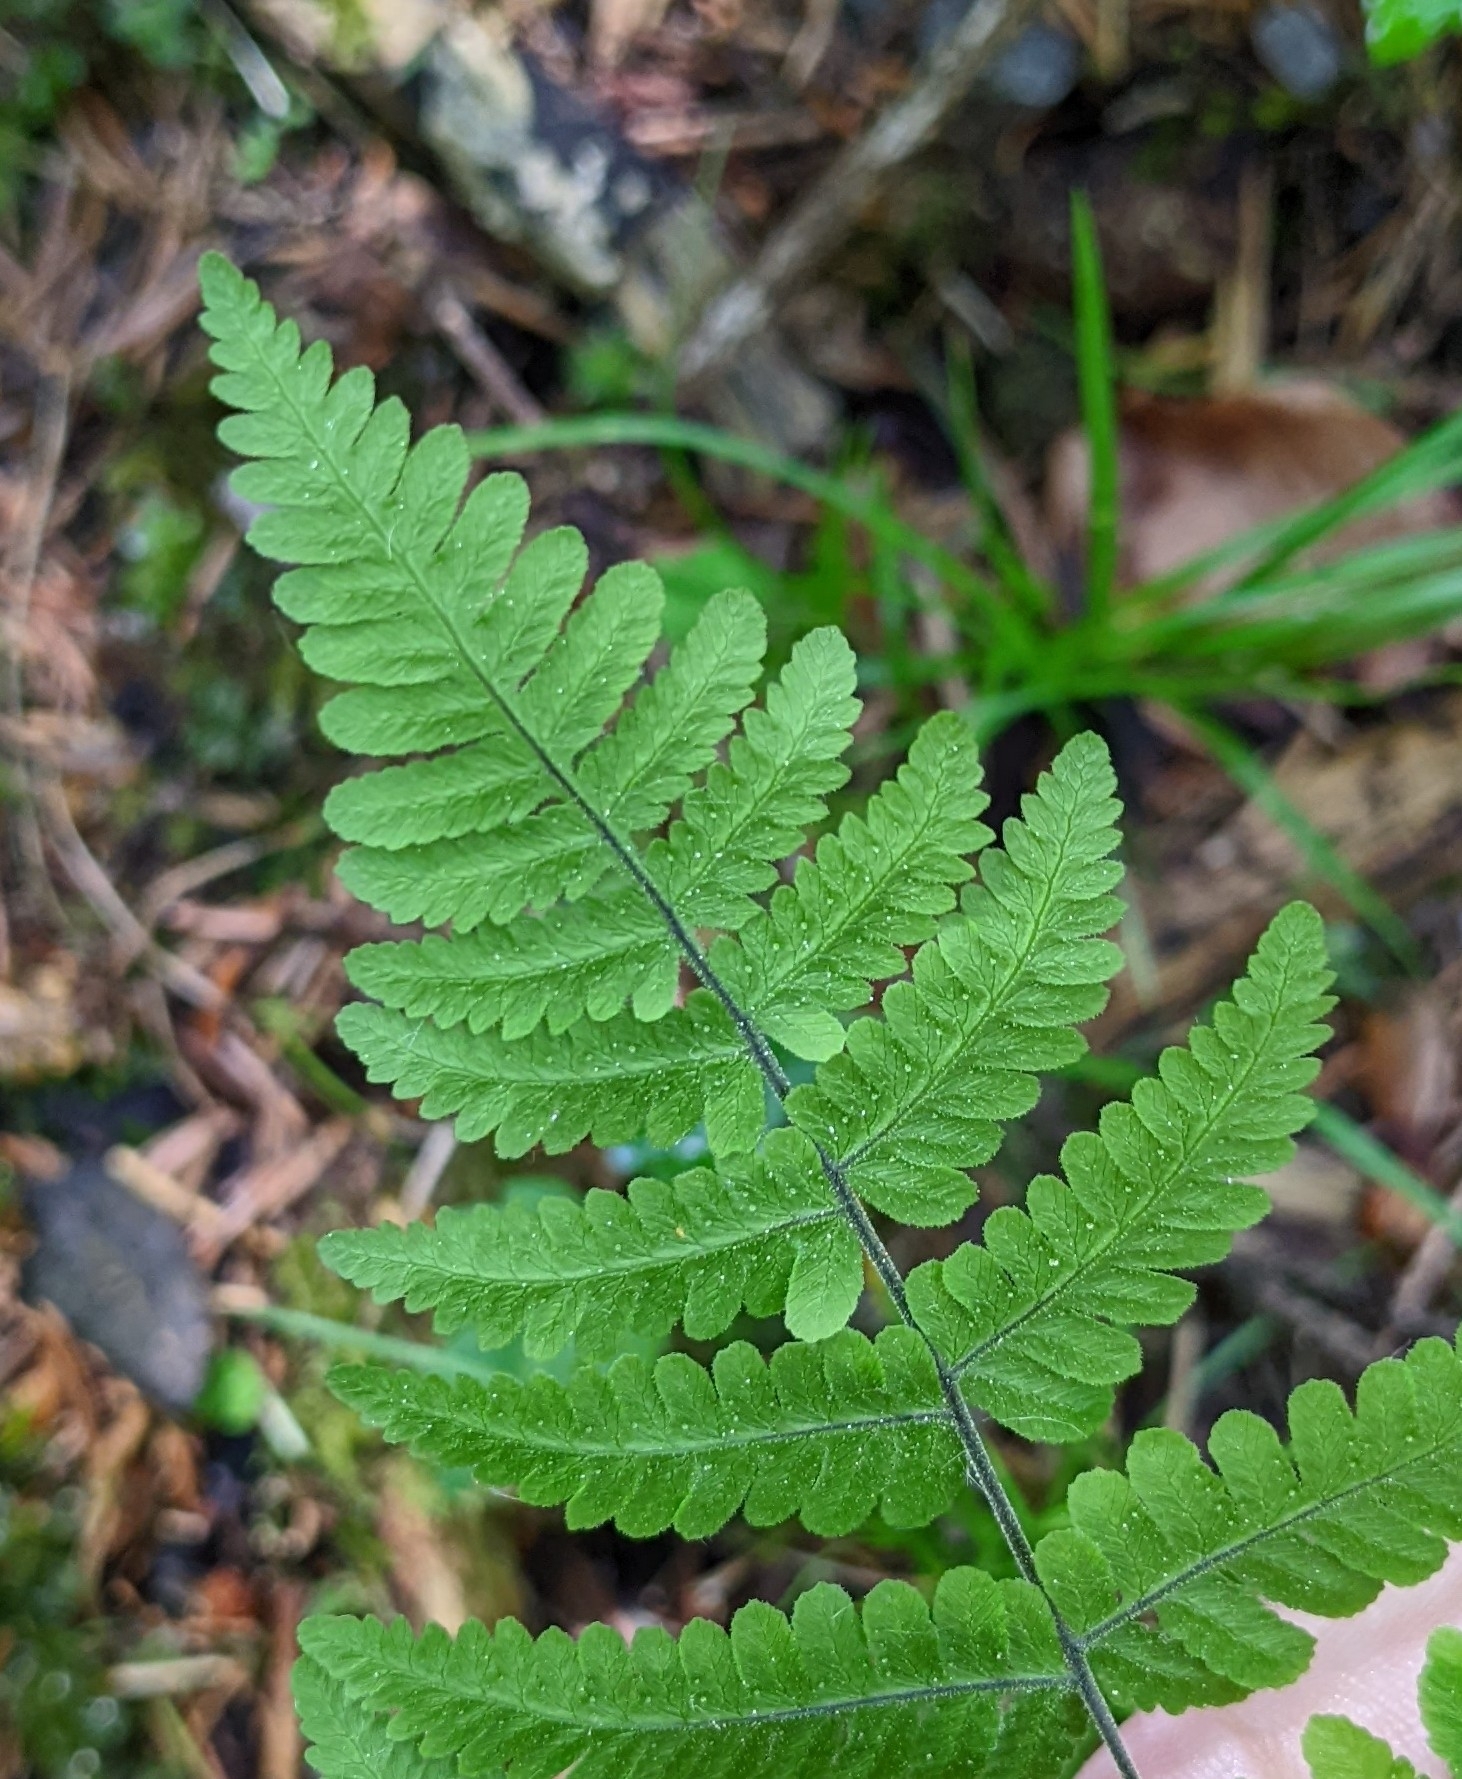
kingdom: Plantae
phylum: Tracheophyta
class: Polypodiopsida
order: Polypodiales
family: Cystopteridaceae
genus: Gymnocarpium
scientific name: Gymnocarpium robertianum
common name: Limestone fern
